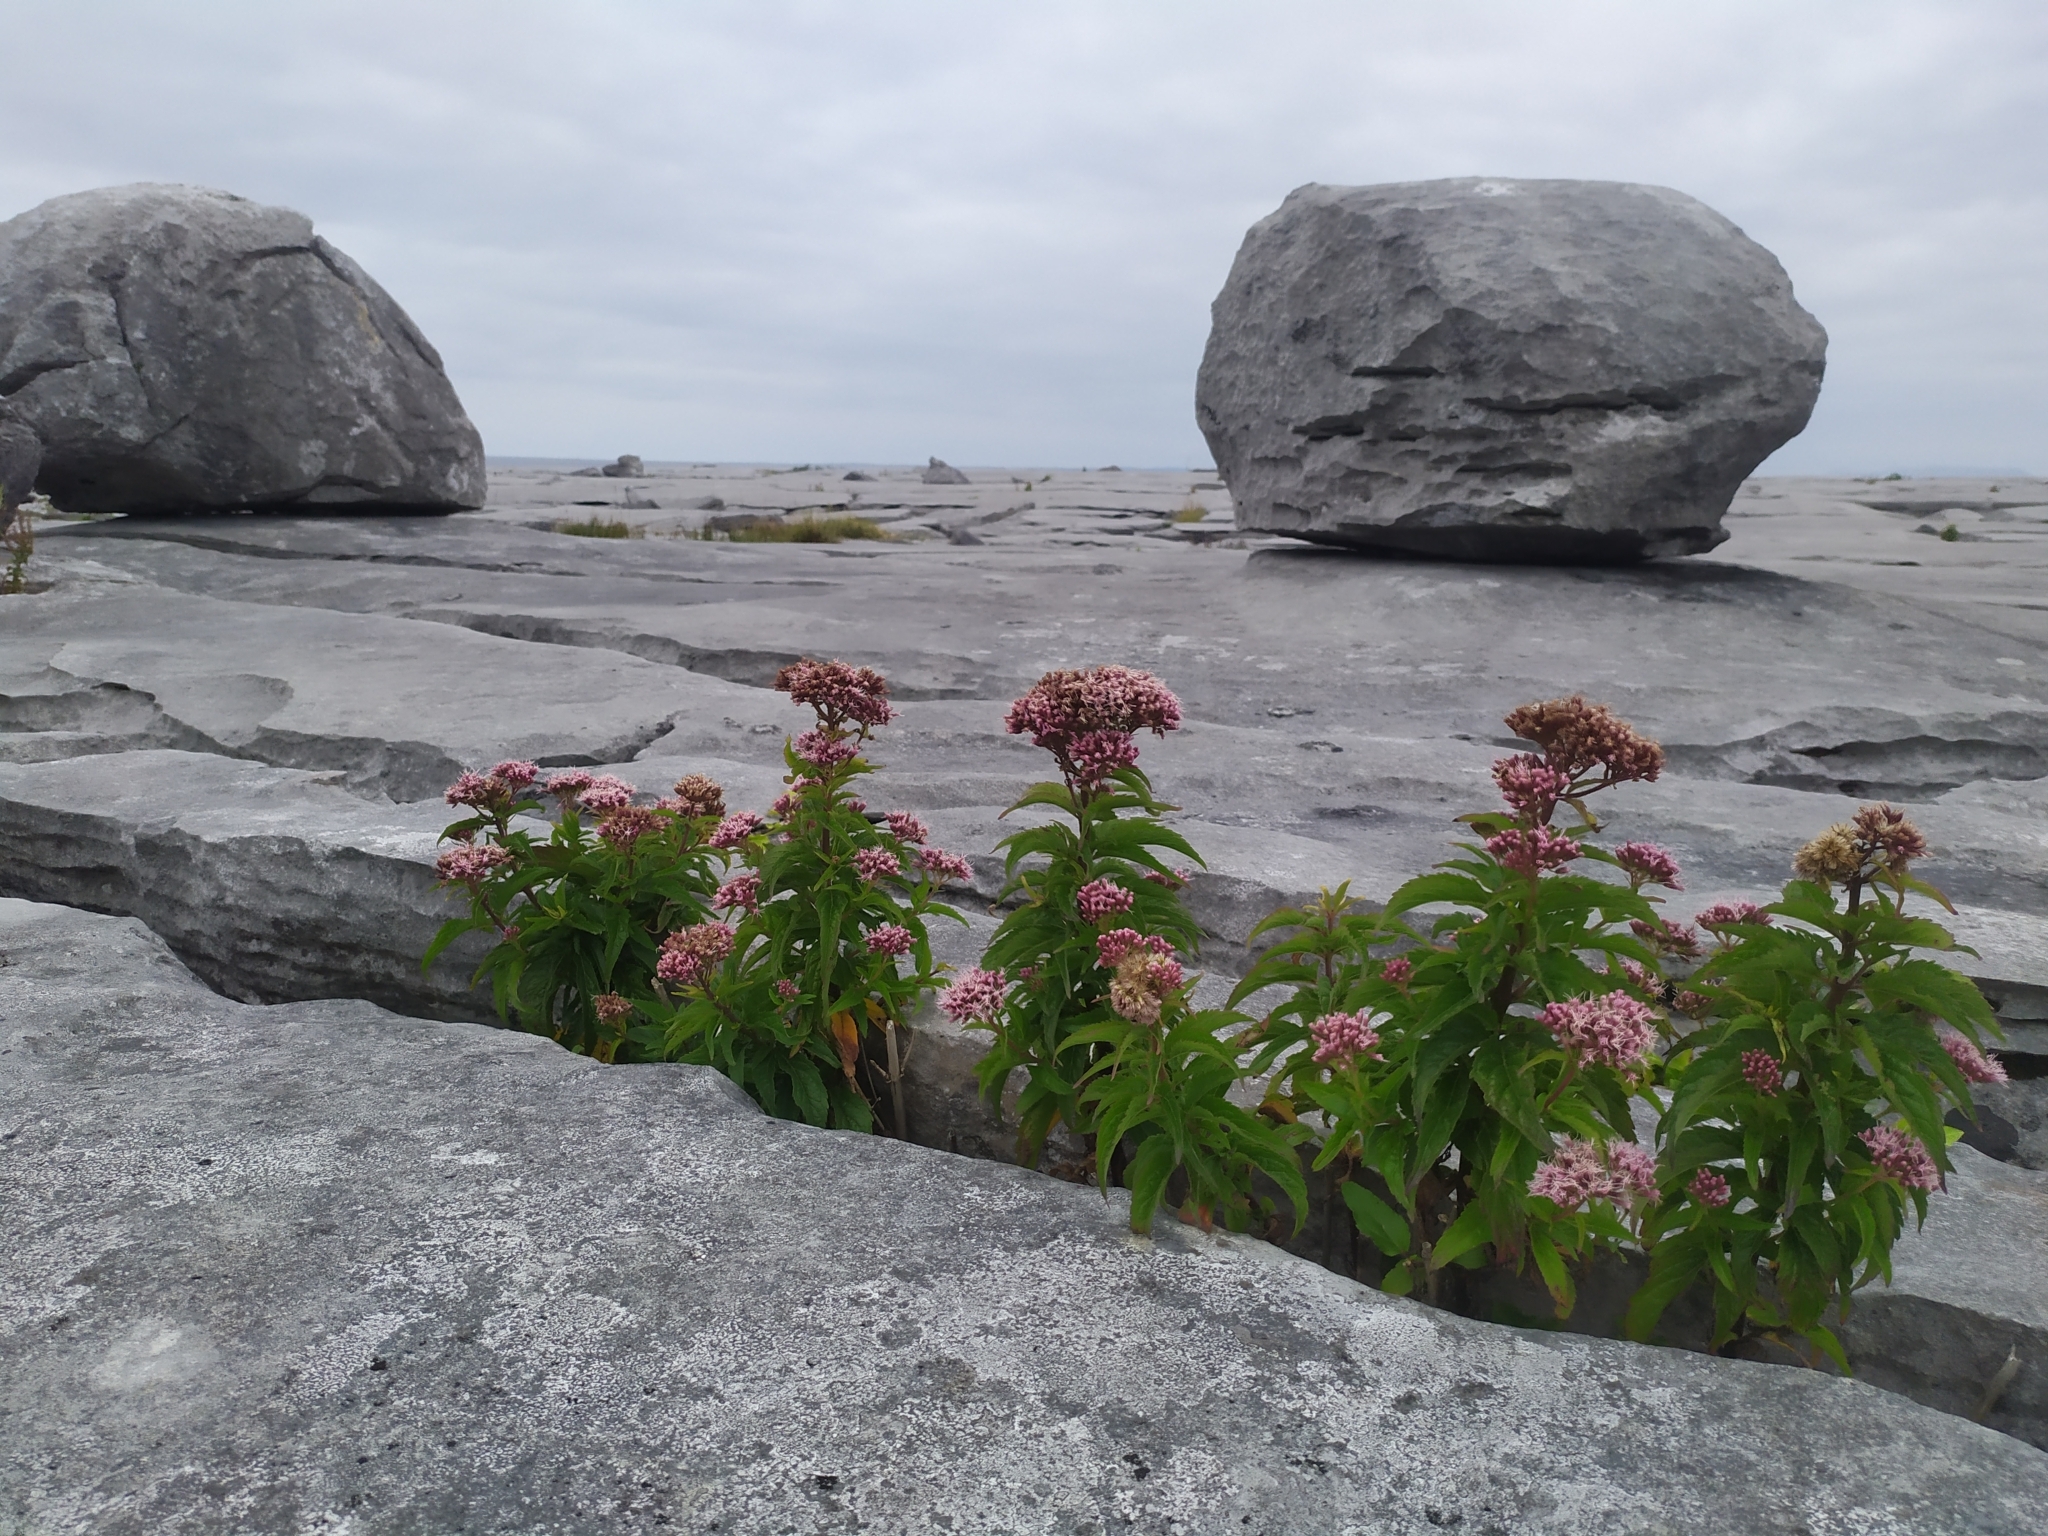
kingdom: Plantae
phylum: Tracheophyta
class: Magnoliopsida
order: Asterales
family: Asteraceae
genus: Eupatorium
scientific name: Eupatorium cannabinum
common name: Hemp-agrimony
